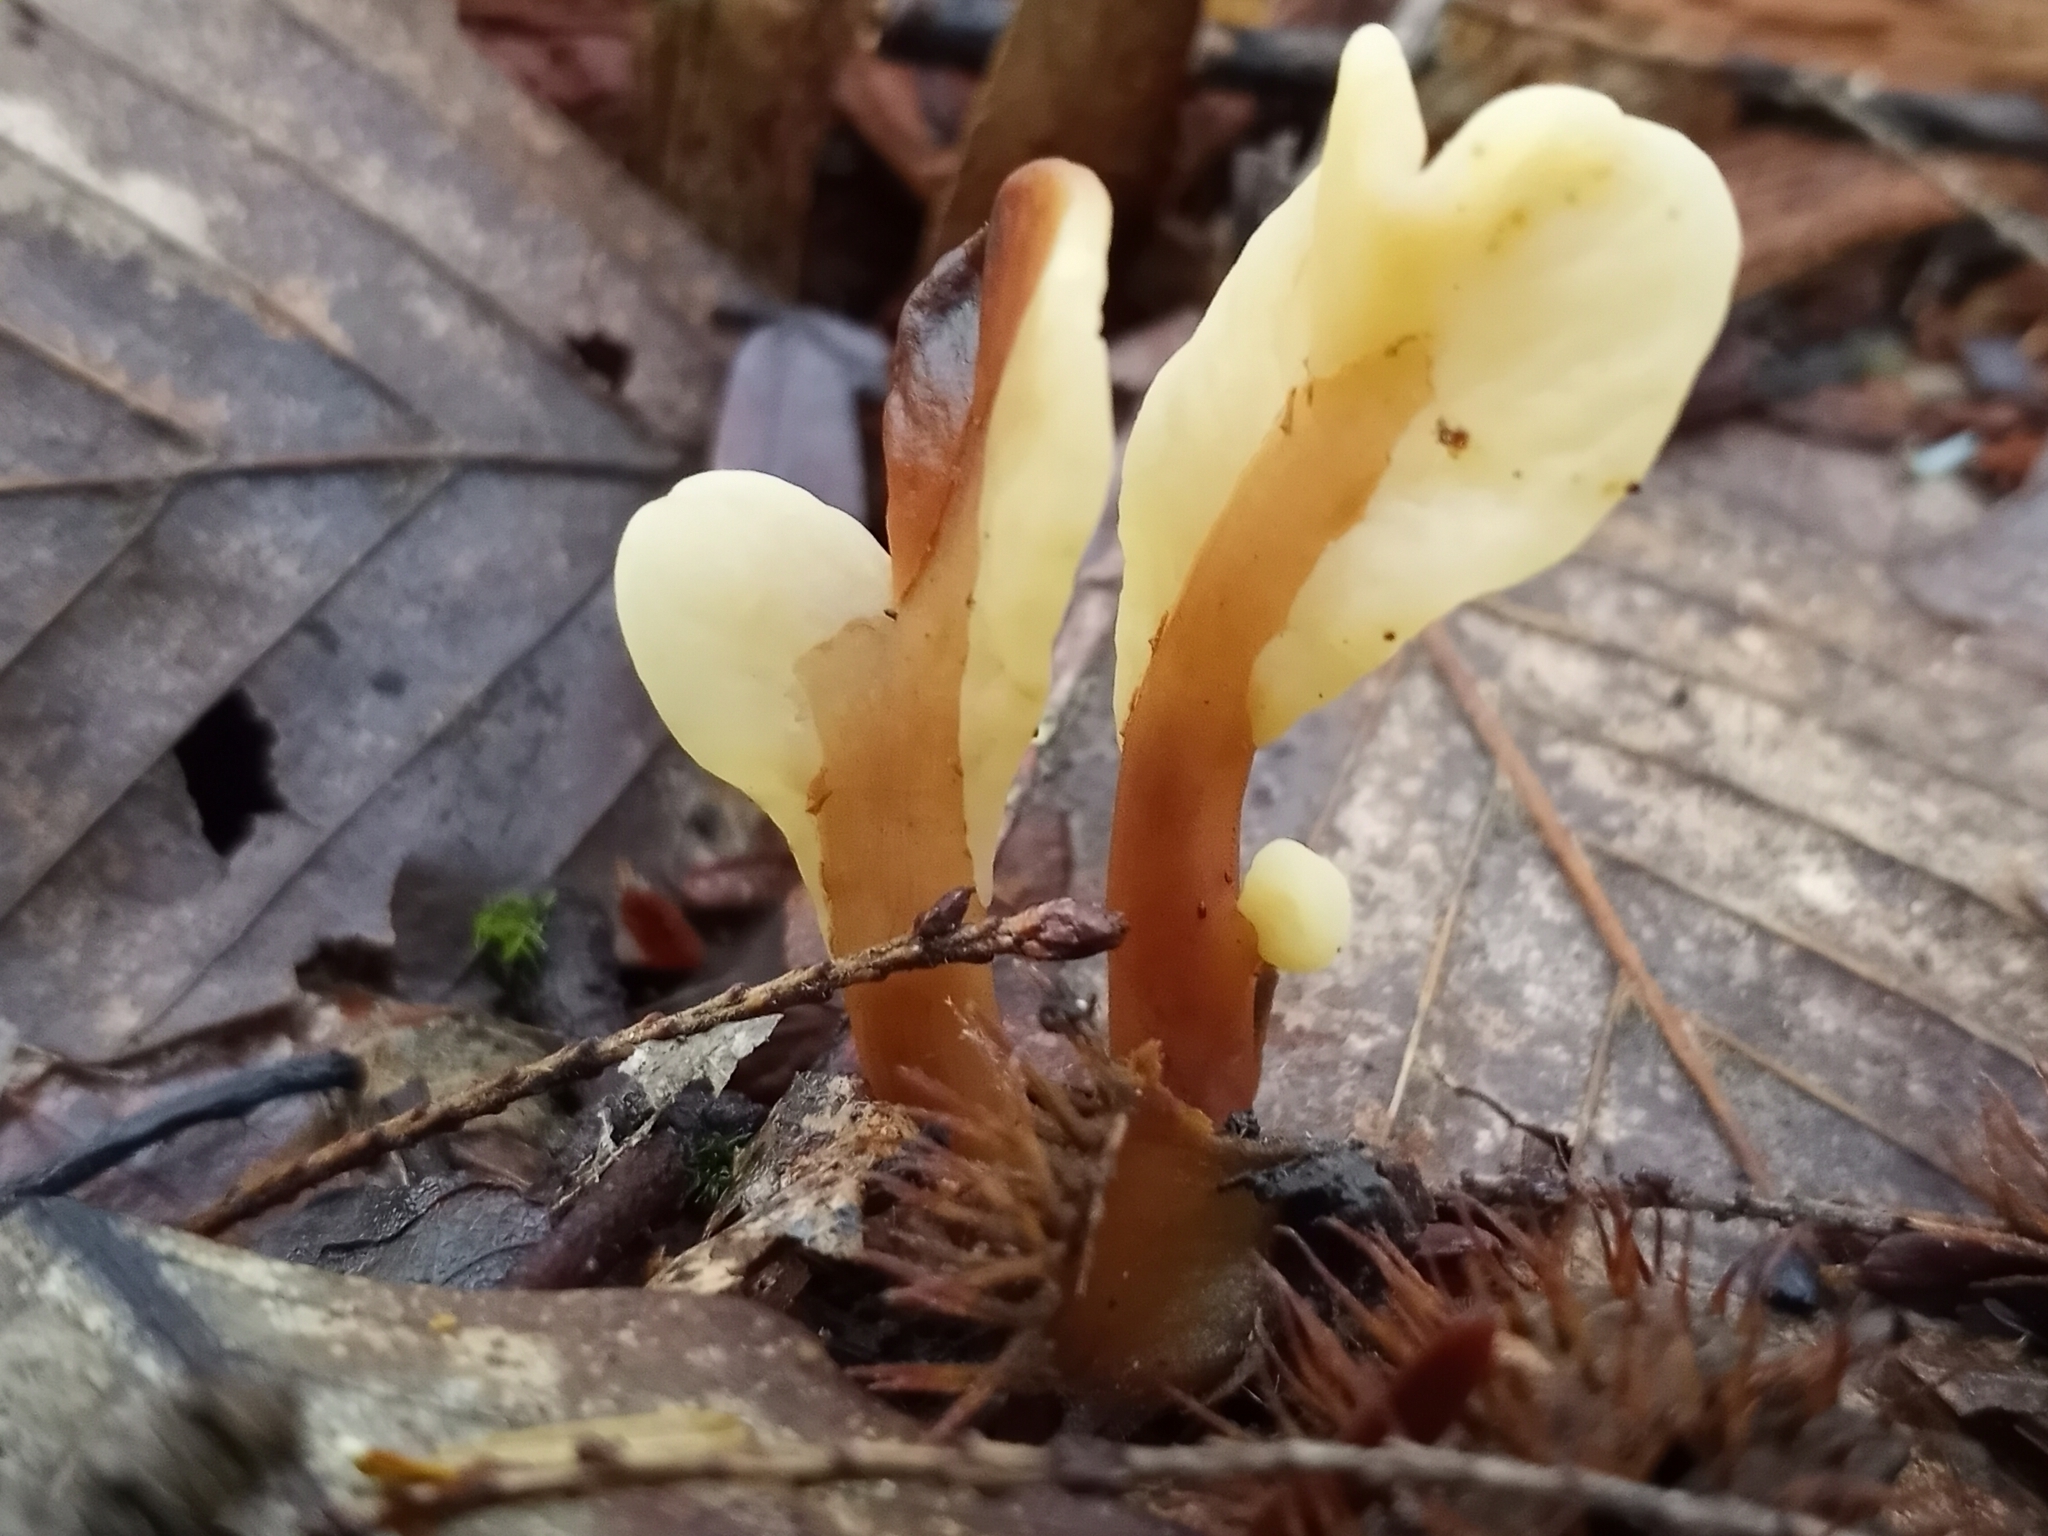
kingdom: Fungi
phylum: Ascomycota
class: Leotiomycetes
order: Rhytismatales
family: Cudoniaceae
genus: Spathulariopsis
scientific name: Spathulariopsis velutipes
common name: Velvet-foot fairy fan
